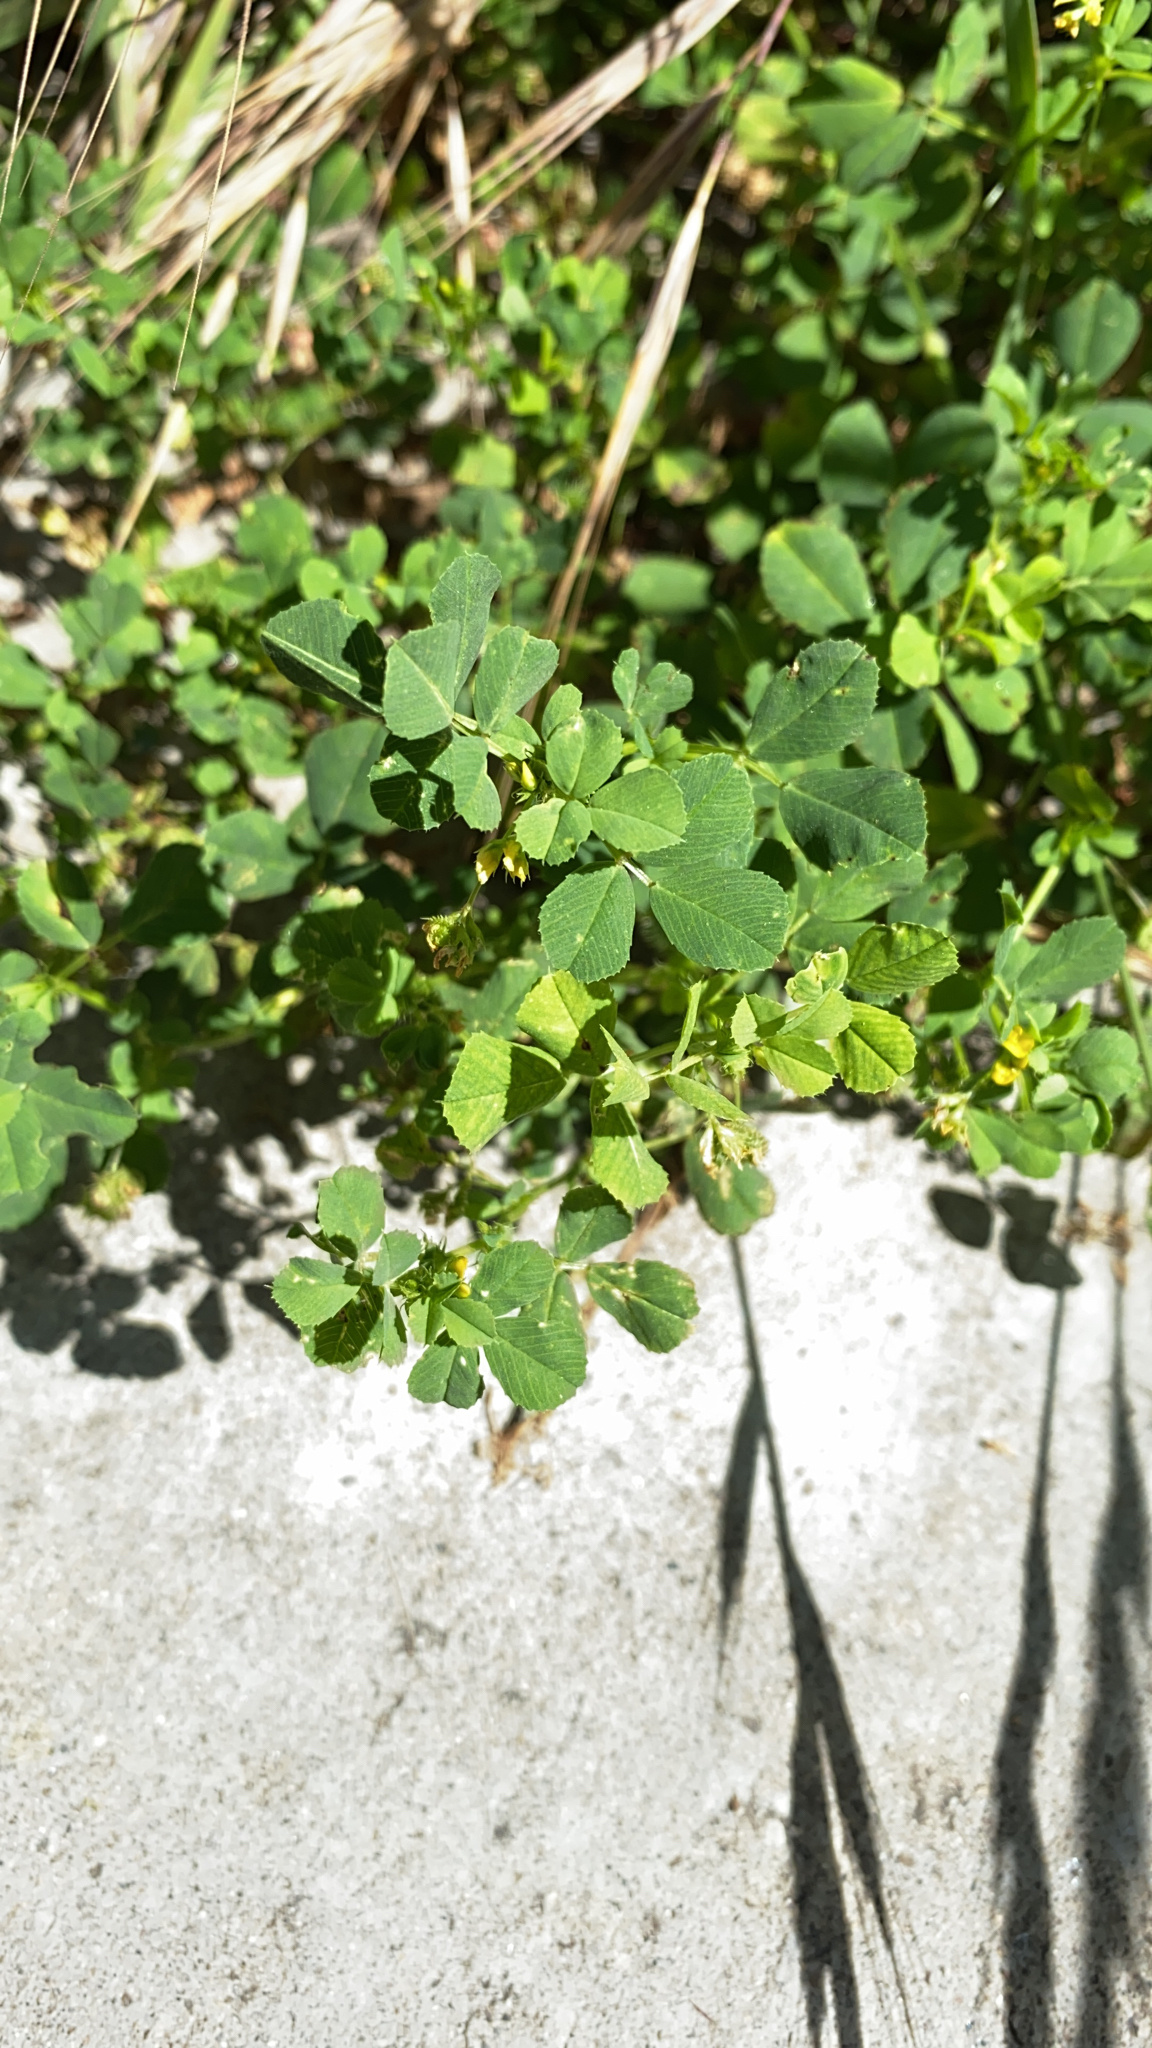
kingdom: Plantae
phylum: Tracheophyta
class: Magnoliopsida
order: Fabales
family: Fabaceae
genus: Medicago
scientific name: Medicago polymorpha
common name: Burclover
